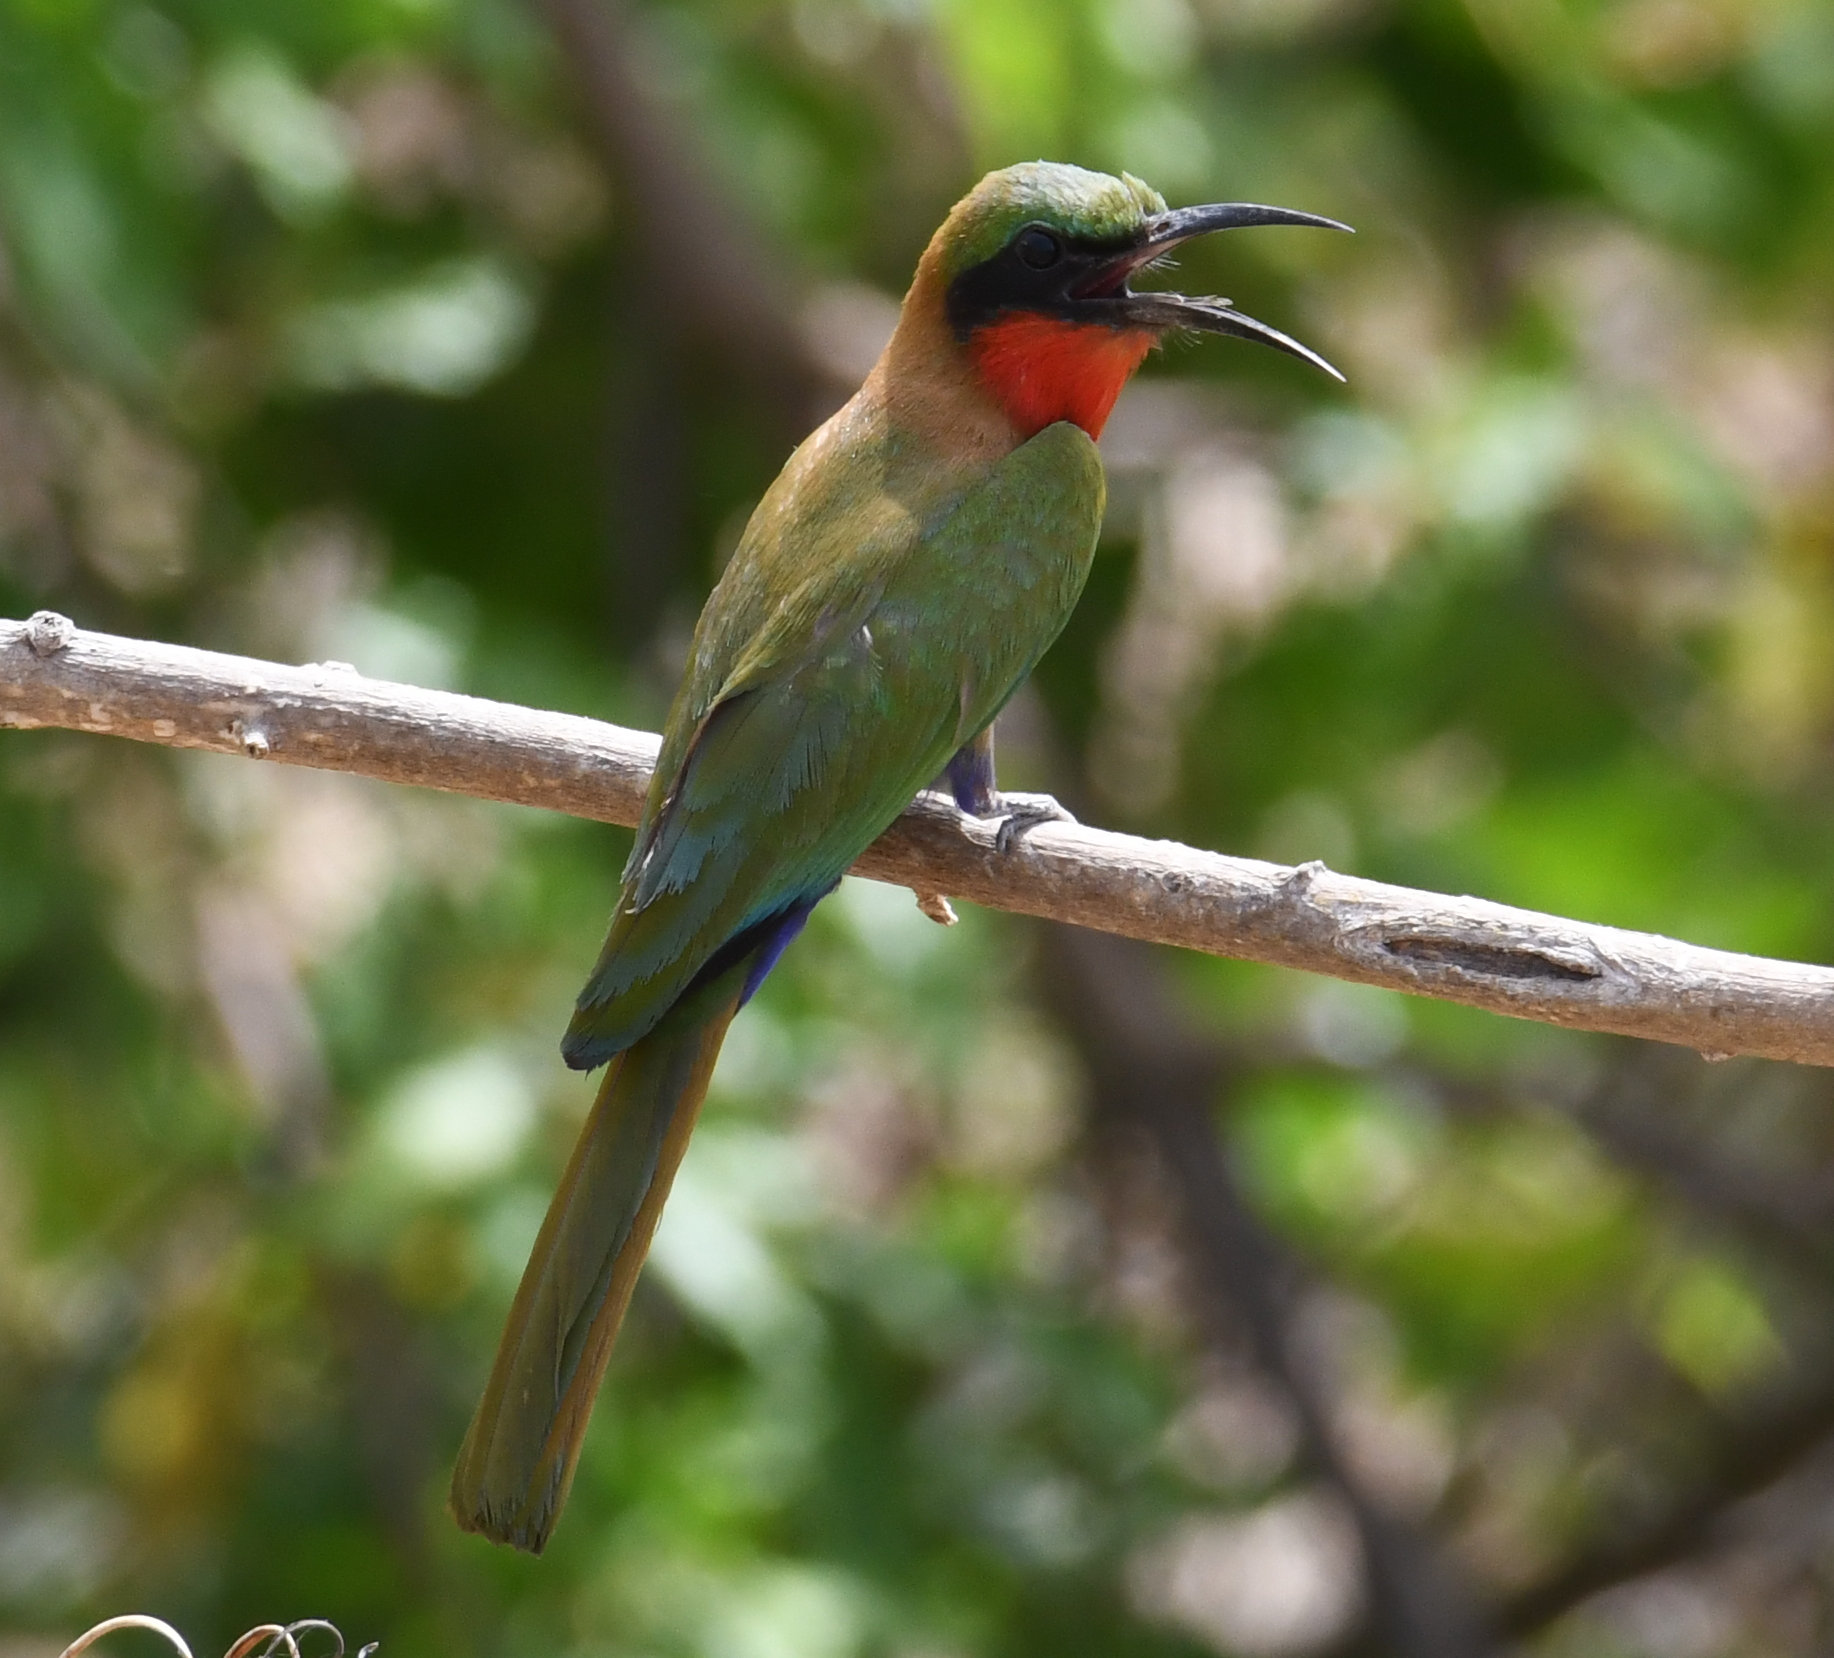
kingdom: Animalia
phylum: Chordata
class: Aves
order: Coraciiformes
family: Meropidae
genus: Merops
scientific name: Merops bulocki
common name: Red-throated bee-eater
